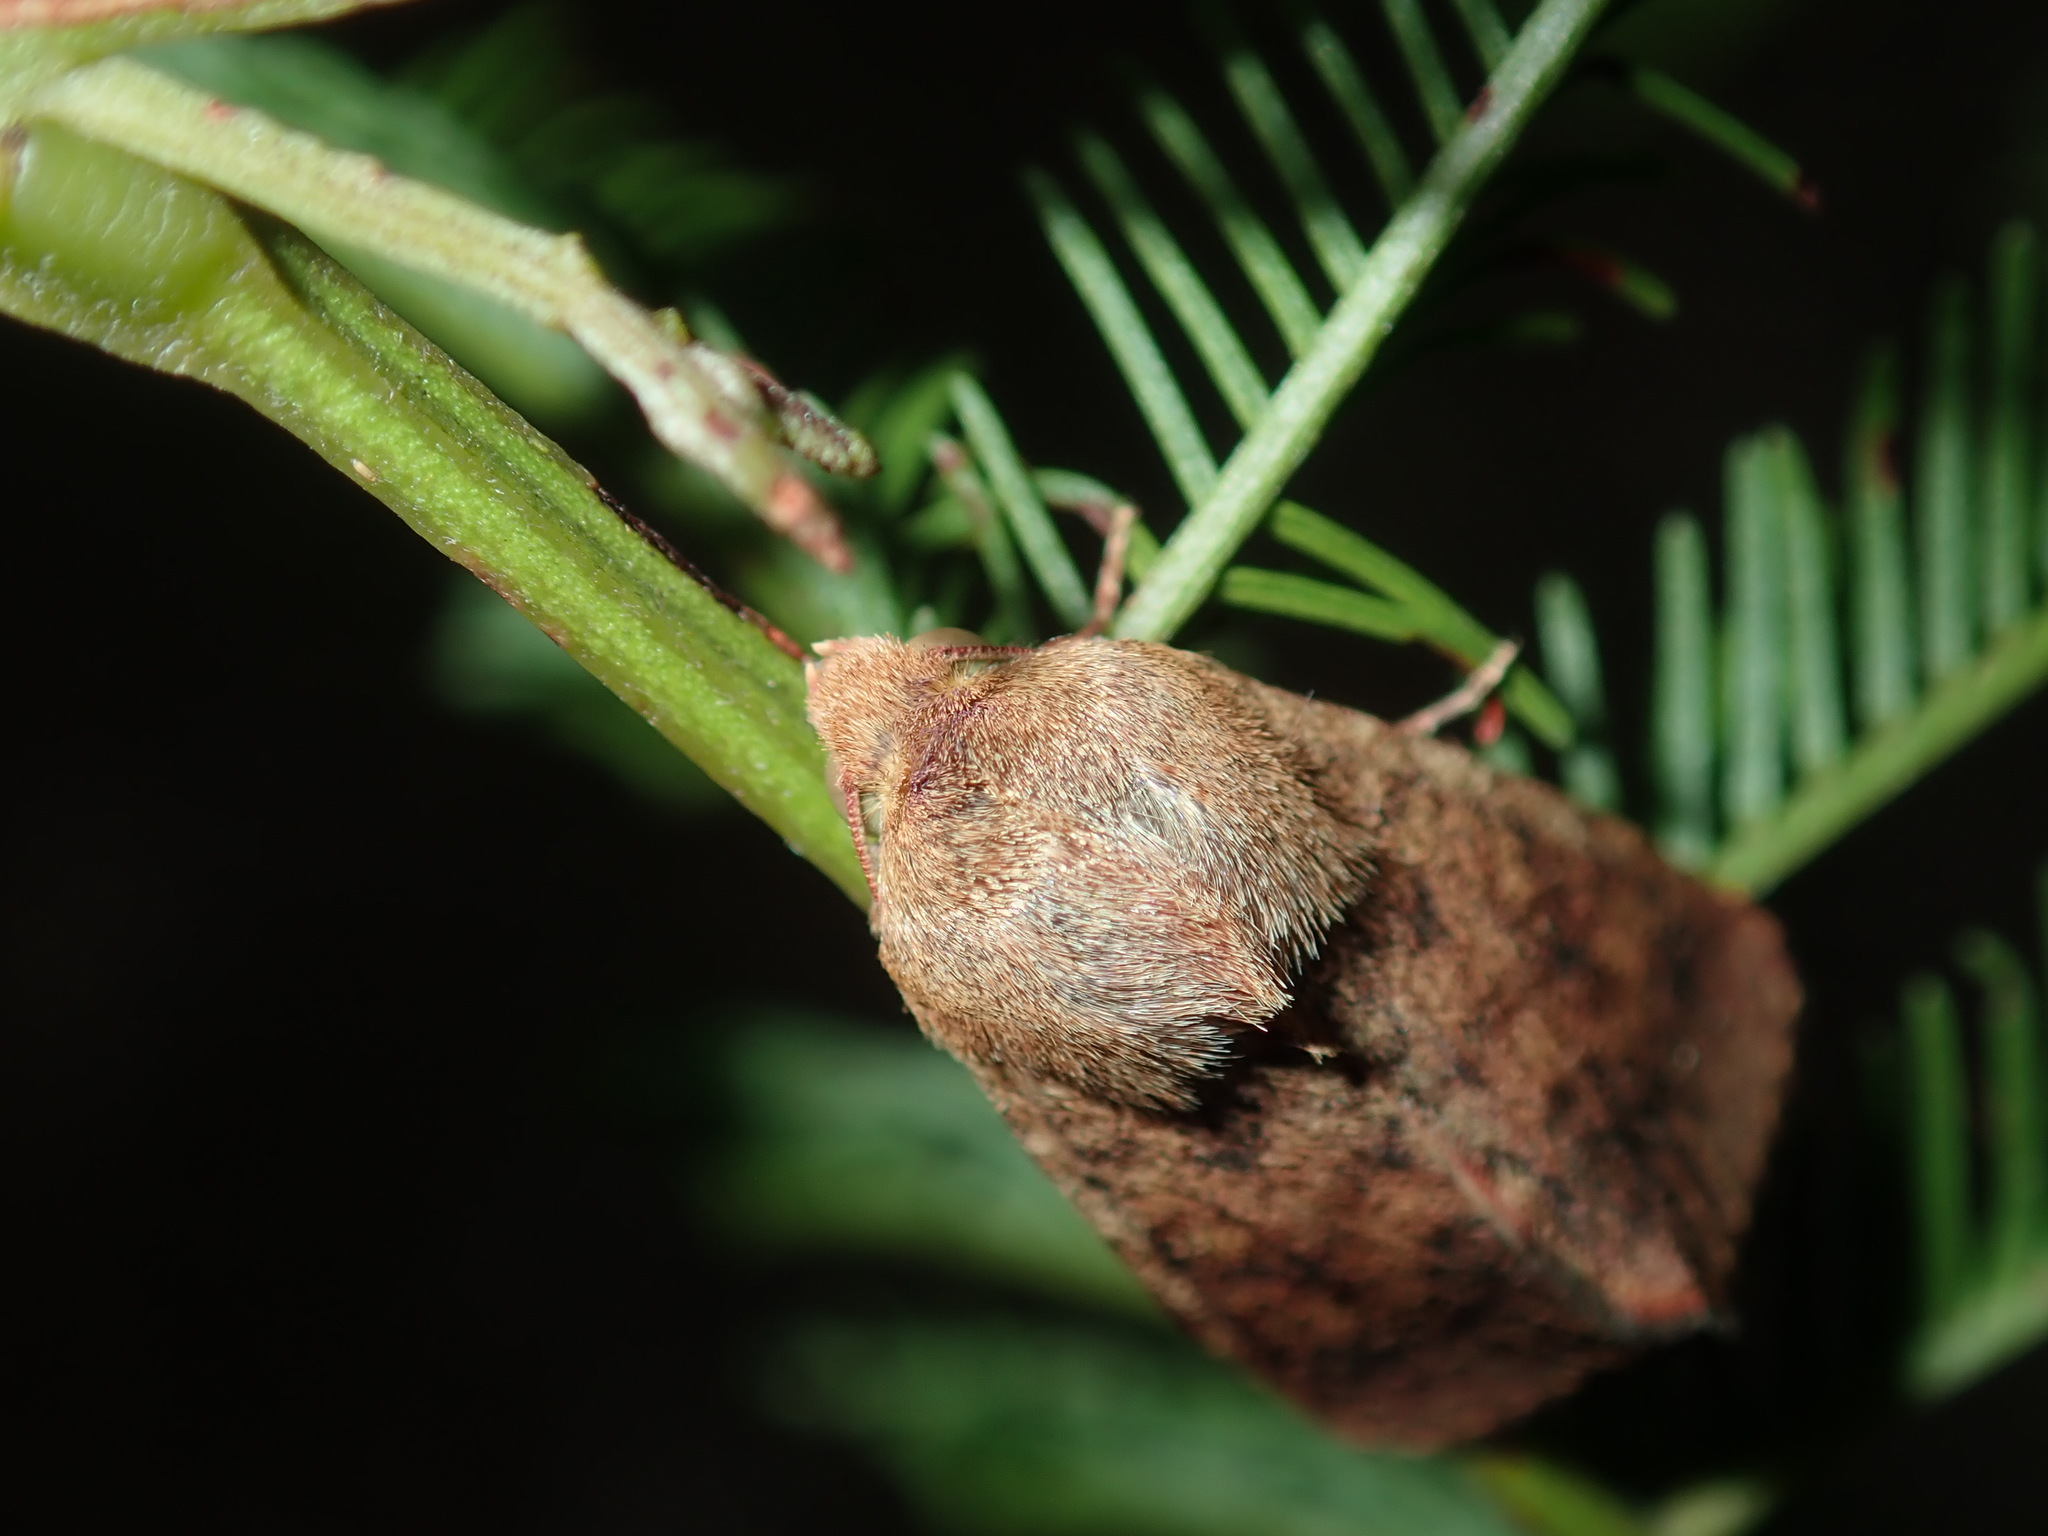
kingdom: Animalia
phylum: Arthropoda
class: Insecta
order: Lepidoptera
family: Noctuidae
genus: Australothis
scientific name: Australothis rubrescens
